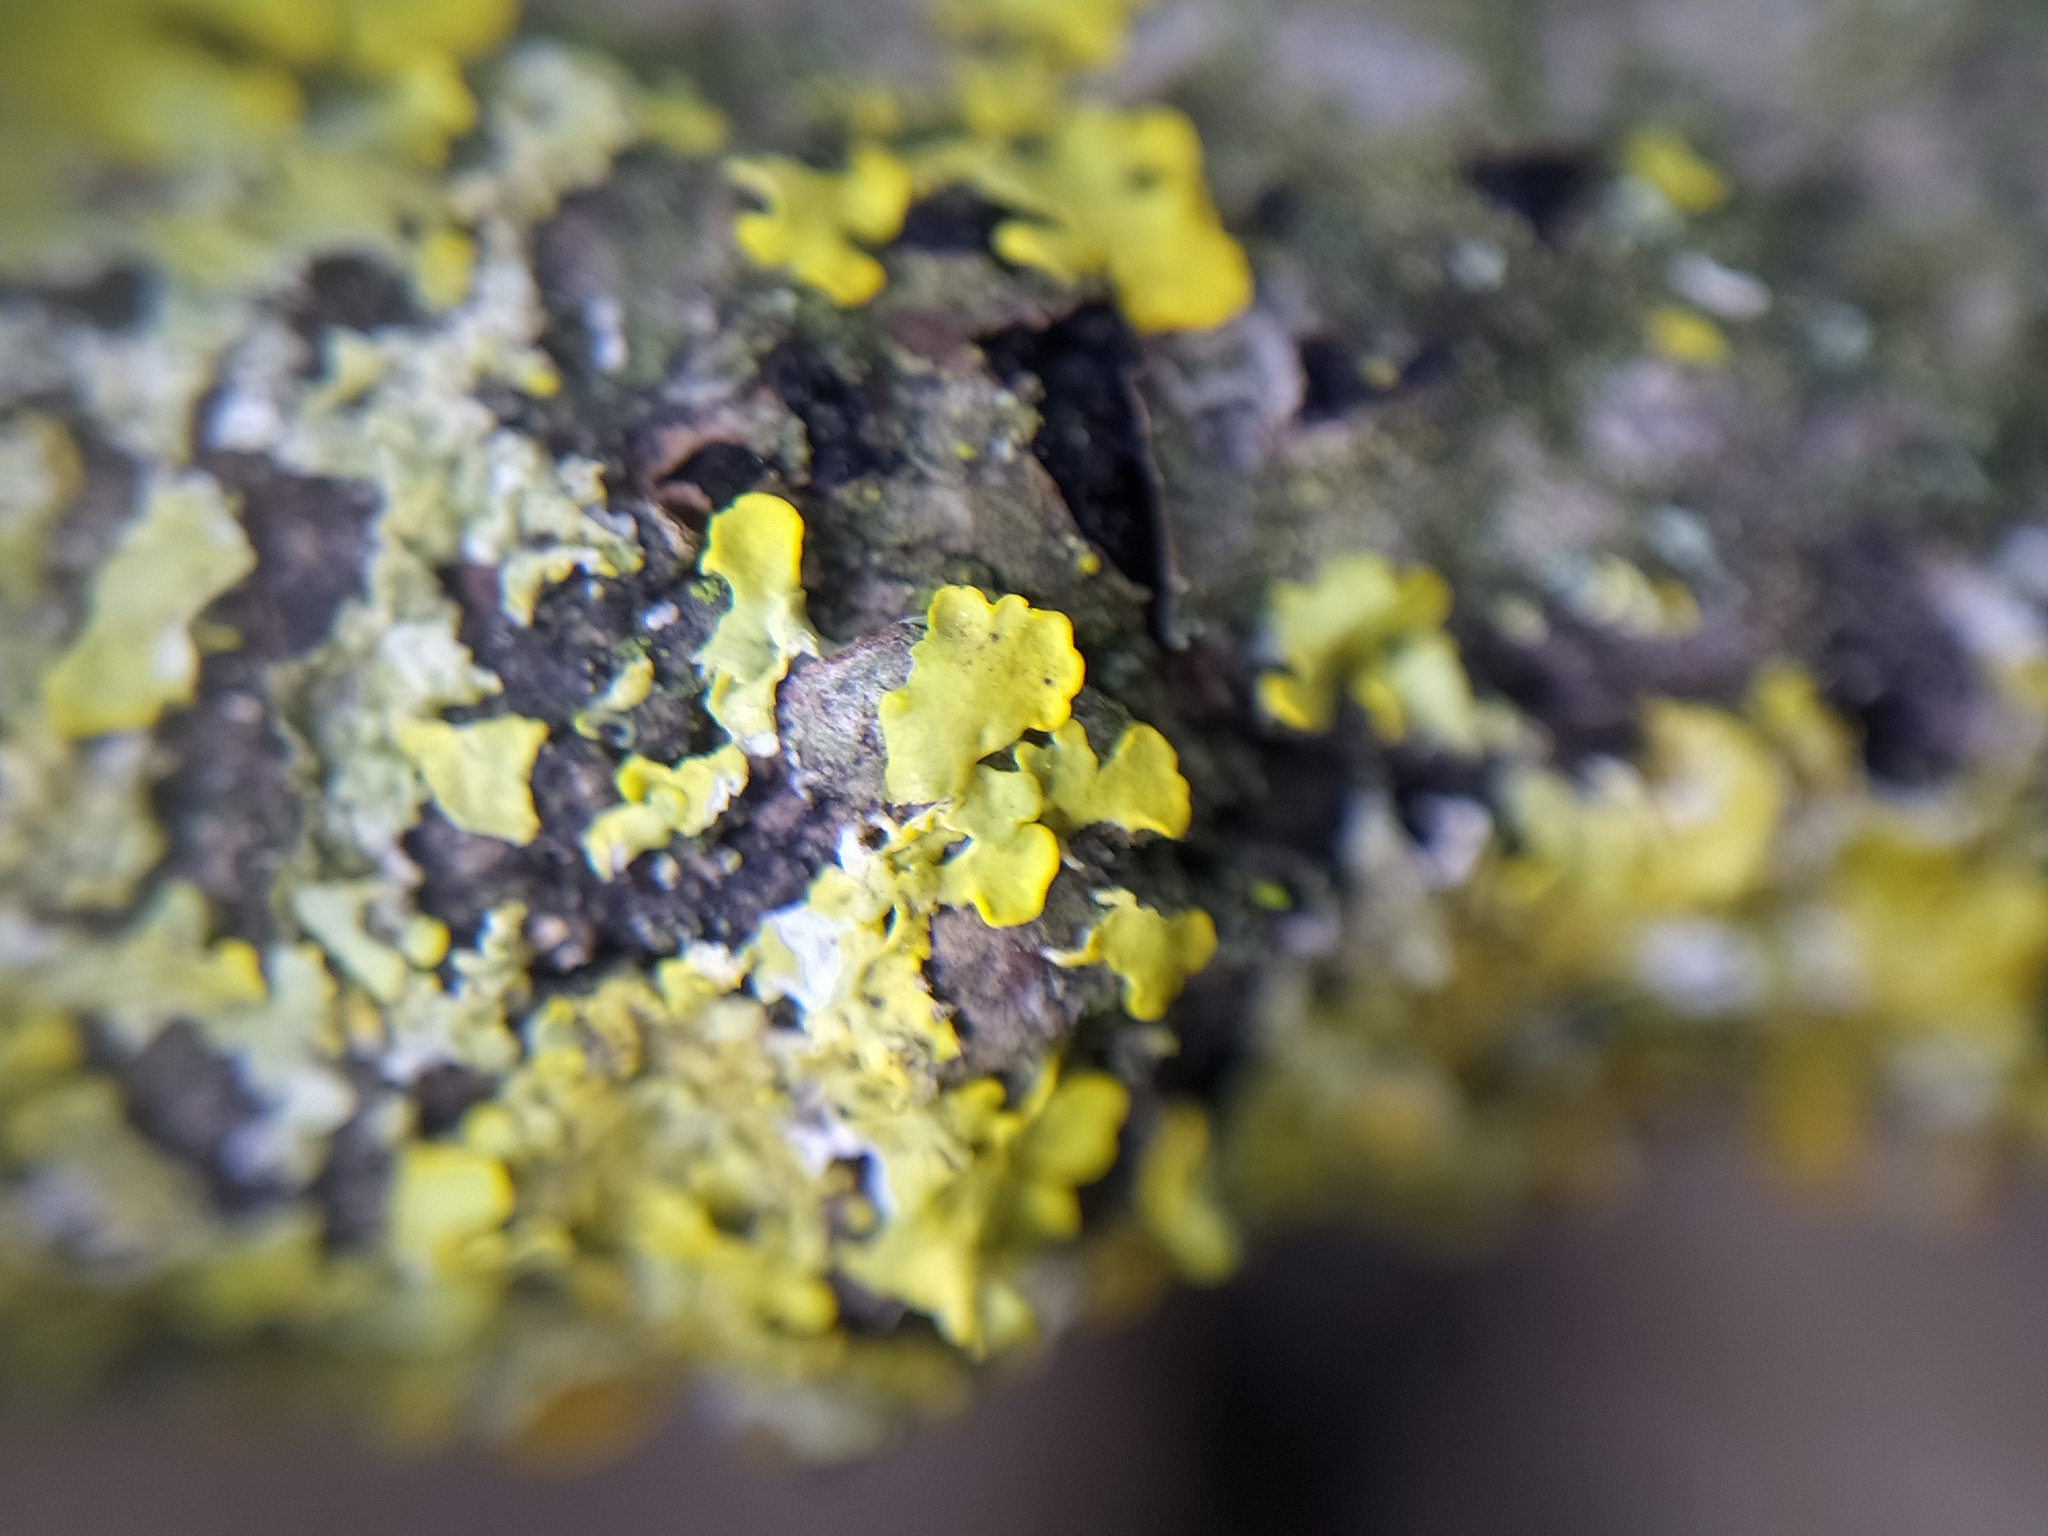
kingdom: Fungi
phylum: Ascomycota
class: Lecanoromycetes
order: Teloschistales
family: Teloschistaceae
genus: Xanthoria
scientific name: Xanthoria
